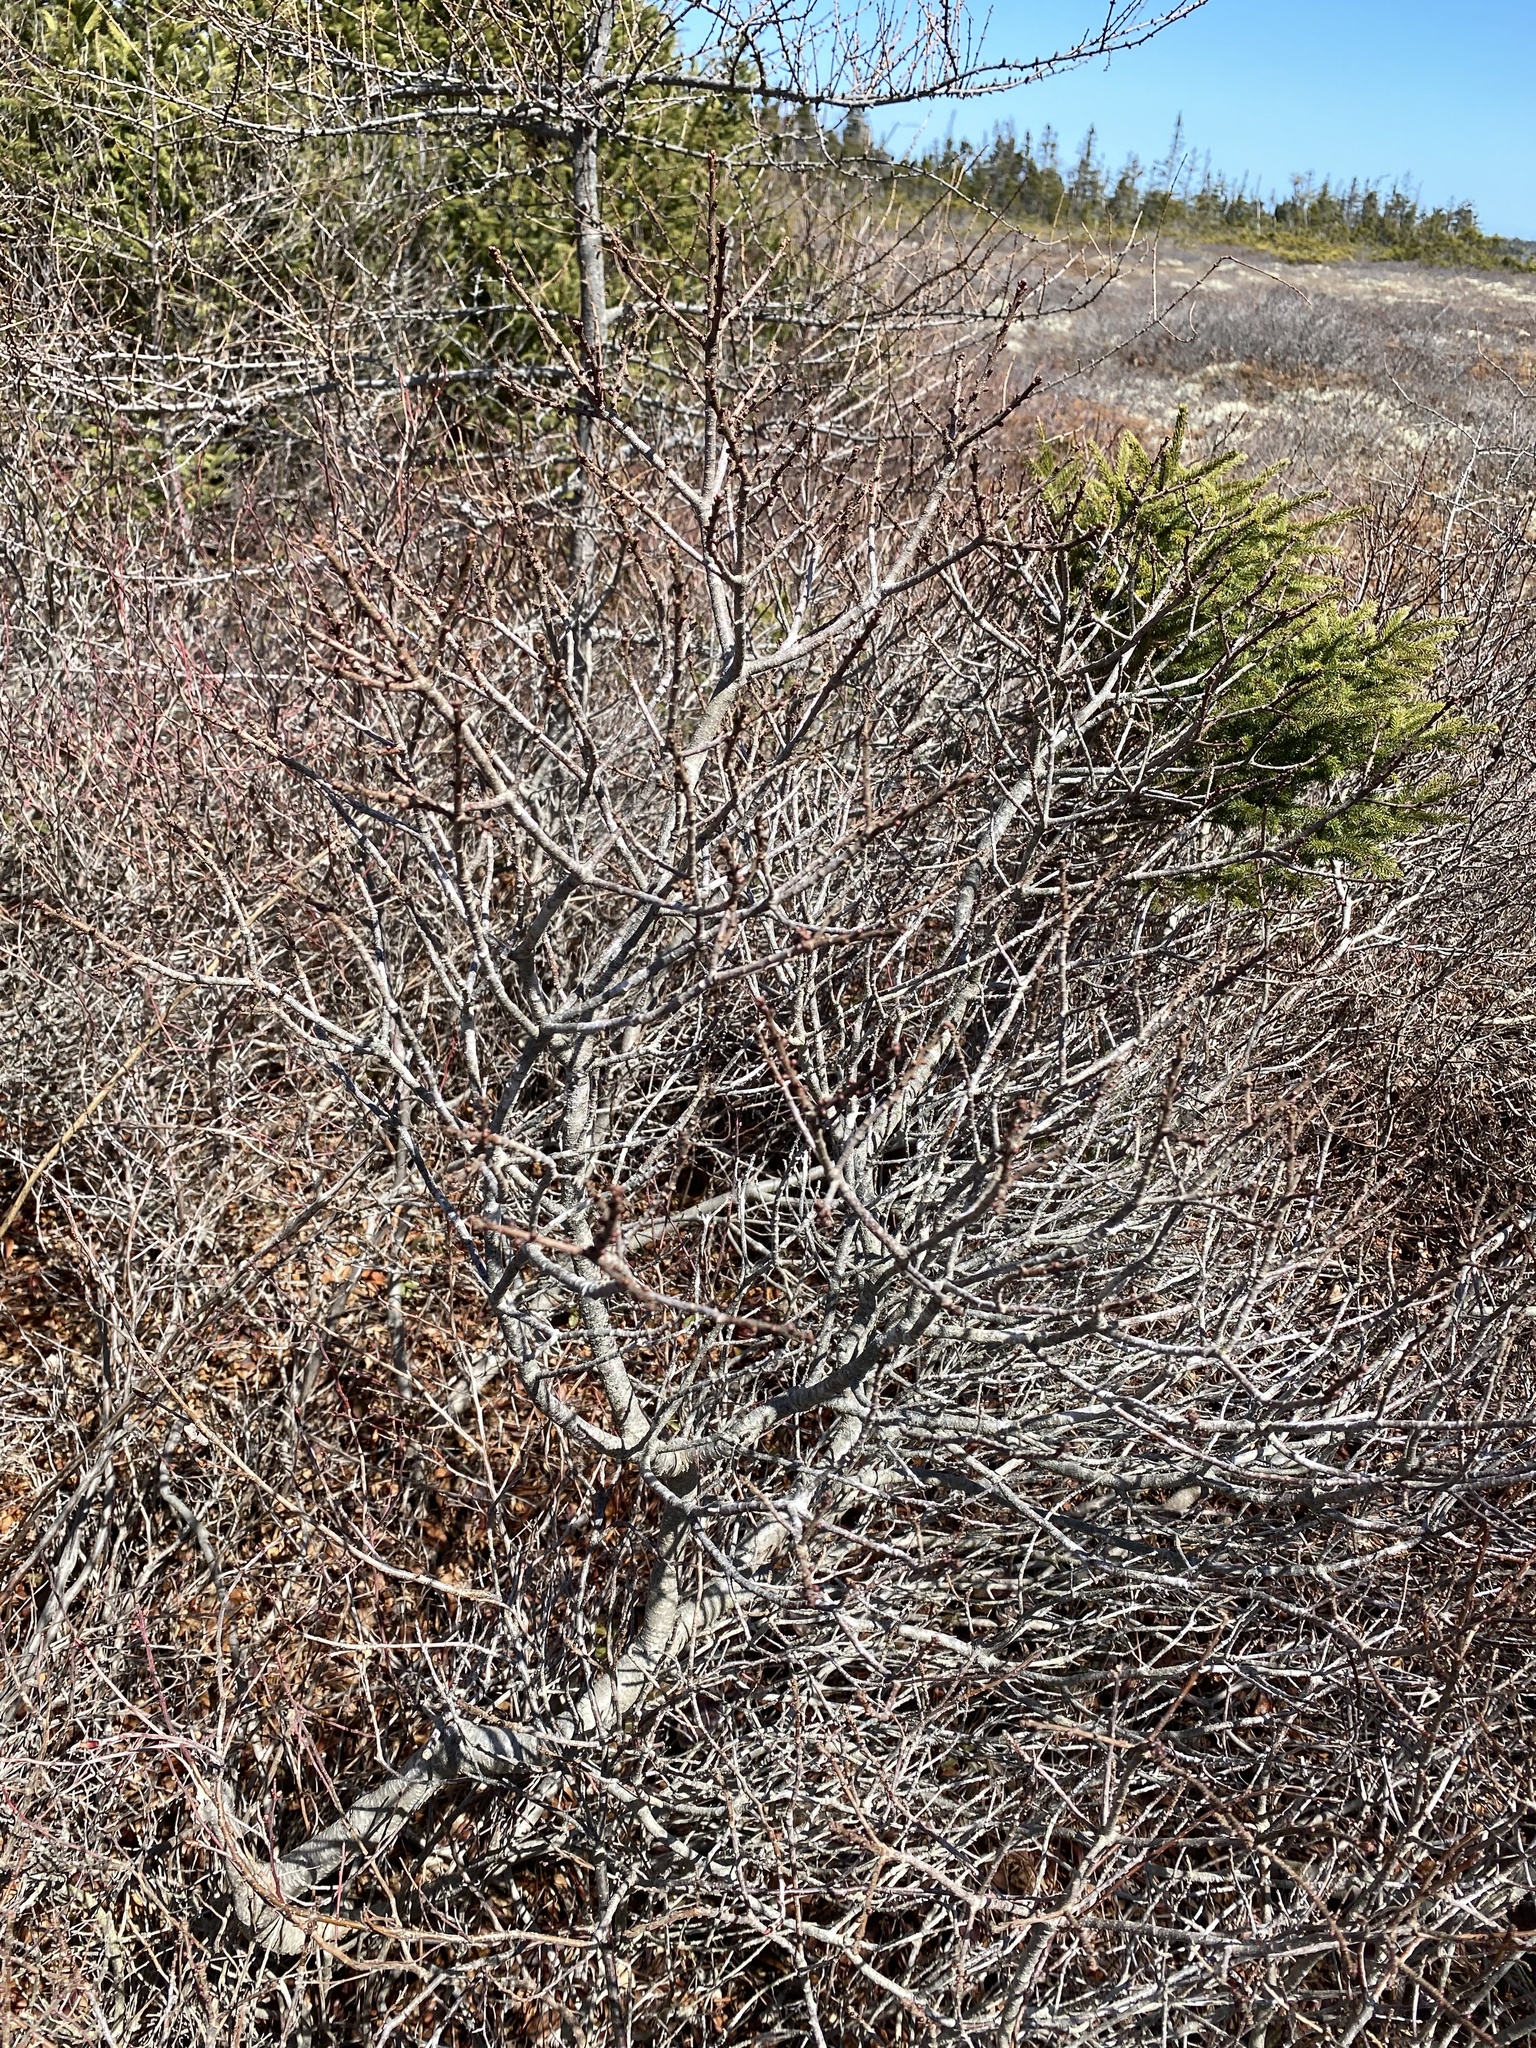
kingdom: Plantae
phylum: Tracheophyta
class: Magnoliopsida
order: Fagales
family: Myricaceae
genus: Morella
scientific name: Morella pensylvanica
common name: Northern bayberry
